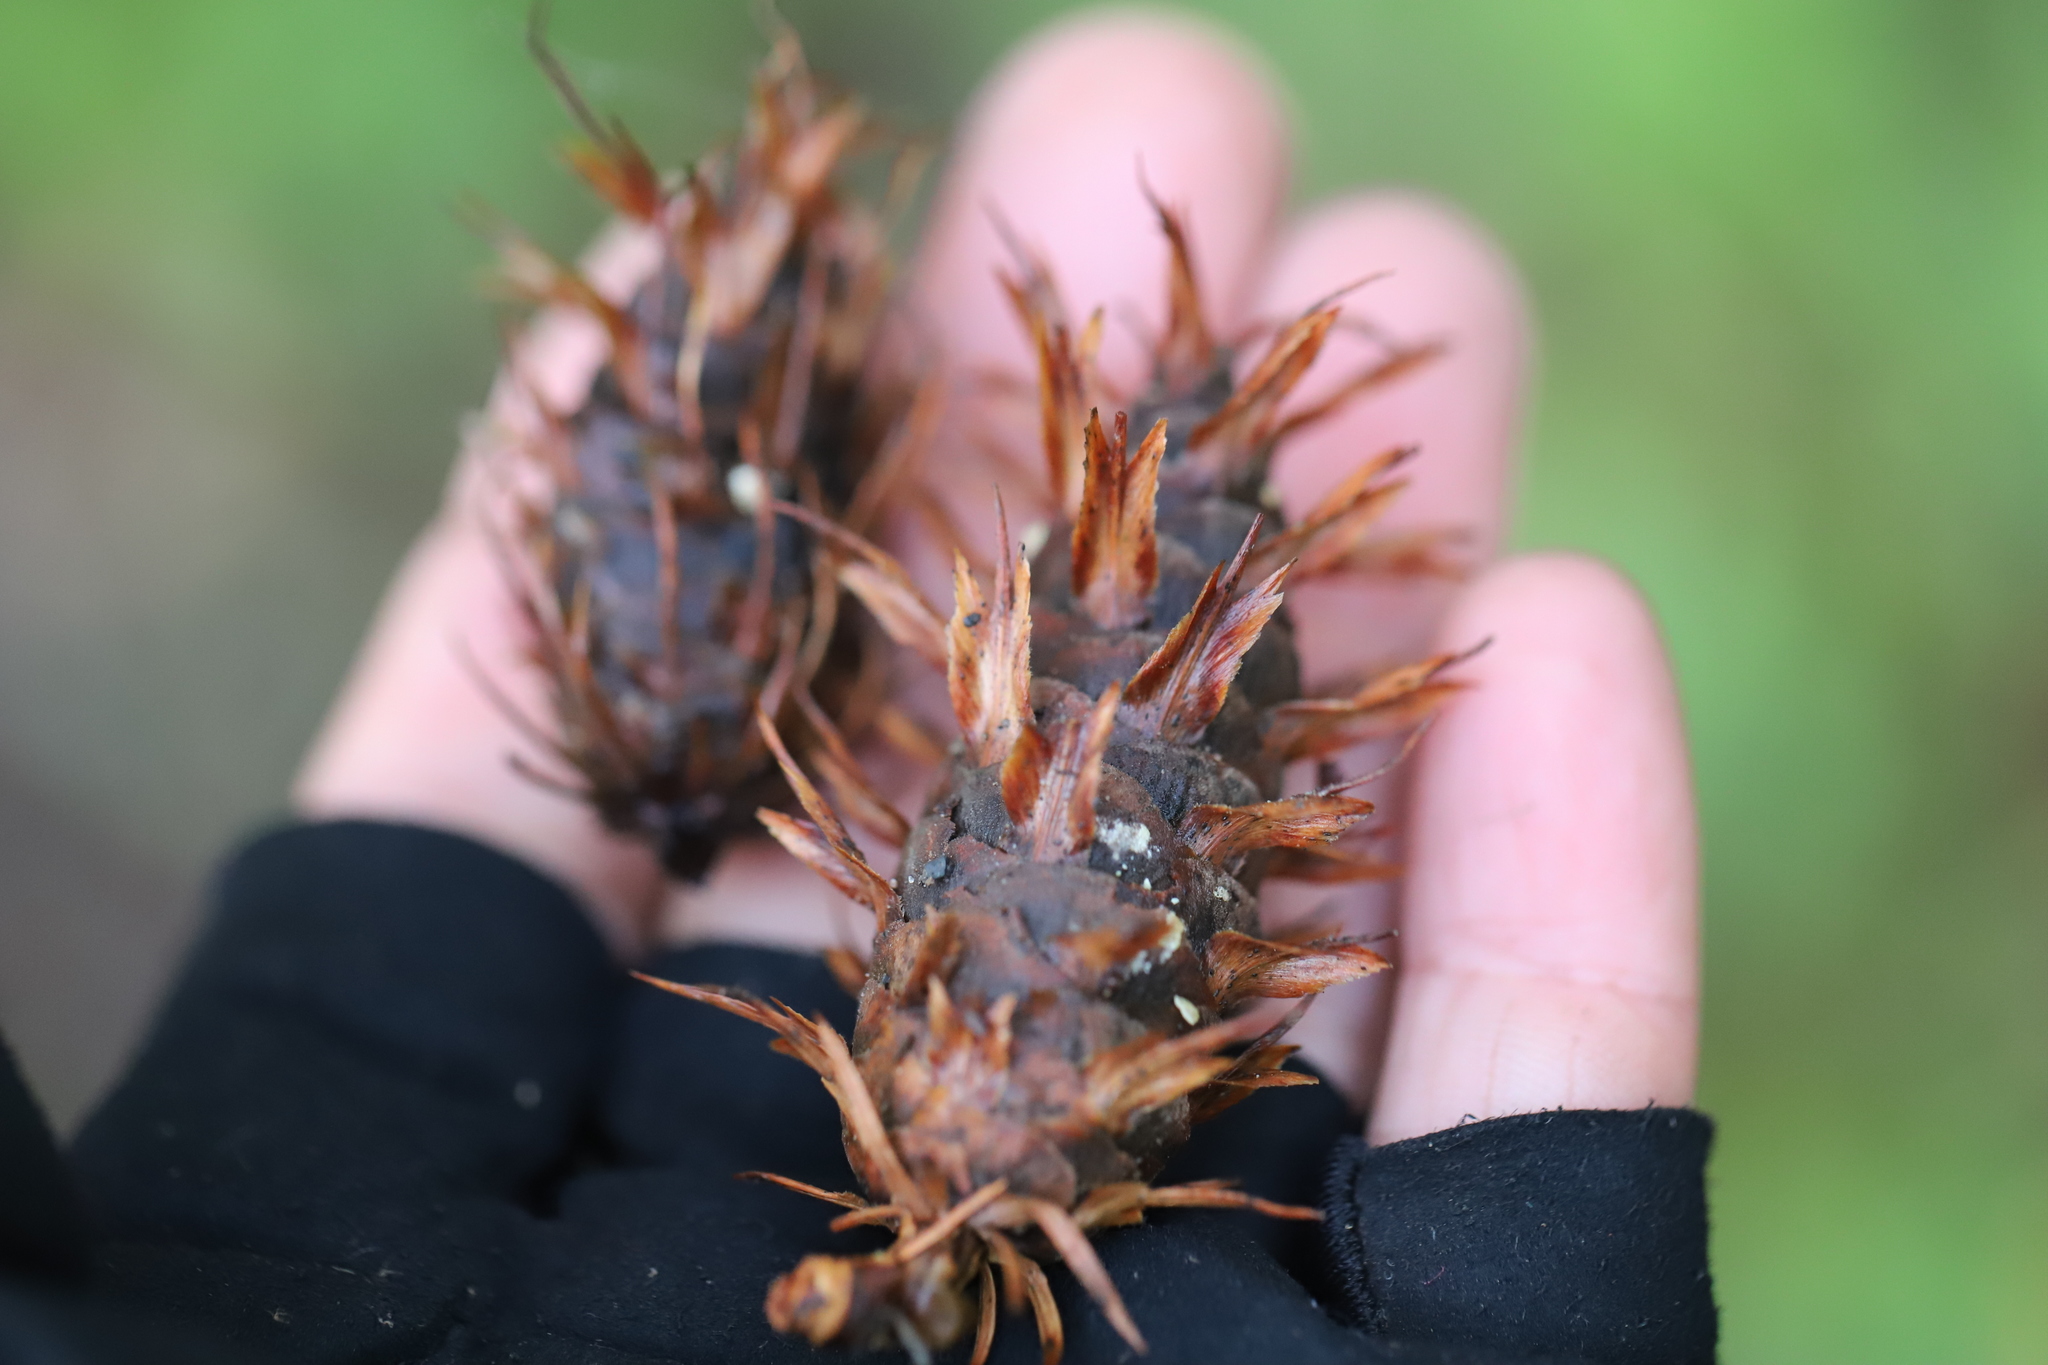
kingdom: Plantae
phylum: Tracheophyta
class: Pinopsida
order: Pinales
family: Pinaceae
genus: Pseudotsuga
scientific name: Pseudotsuga menziesii
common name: Douglas fir
